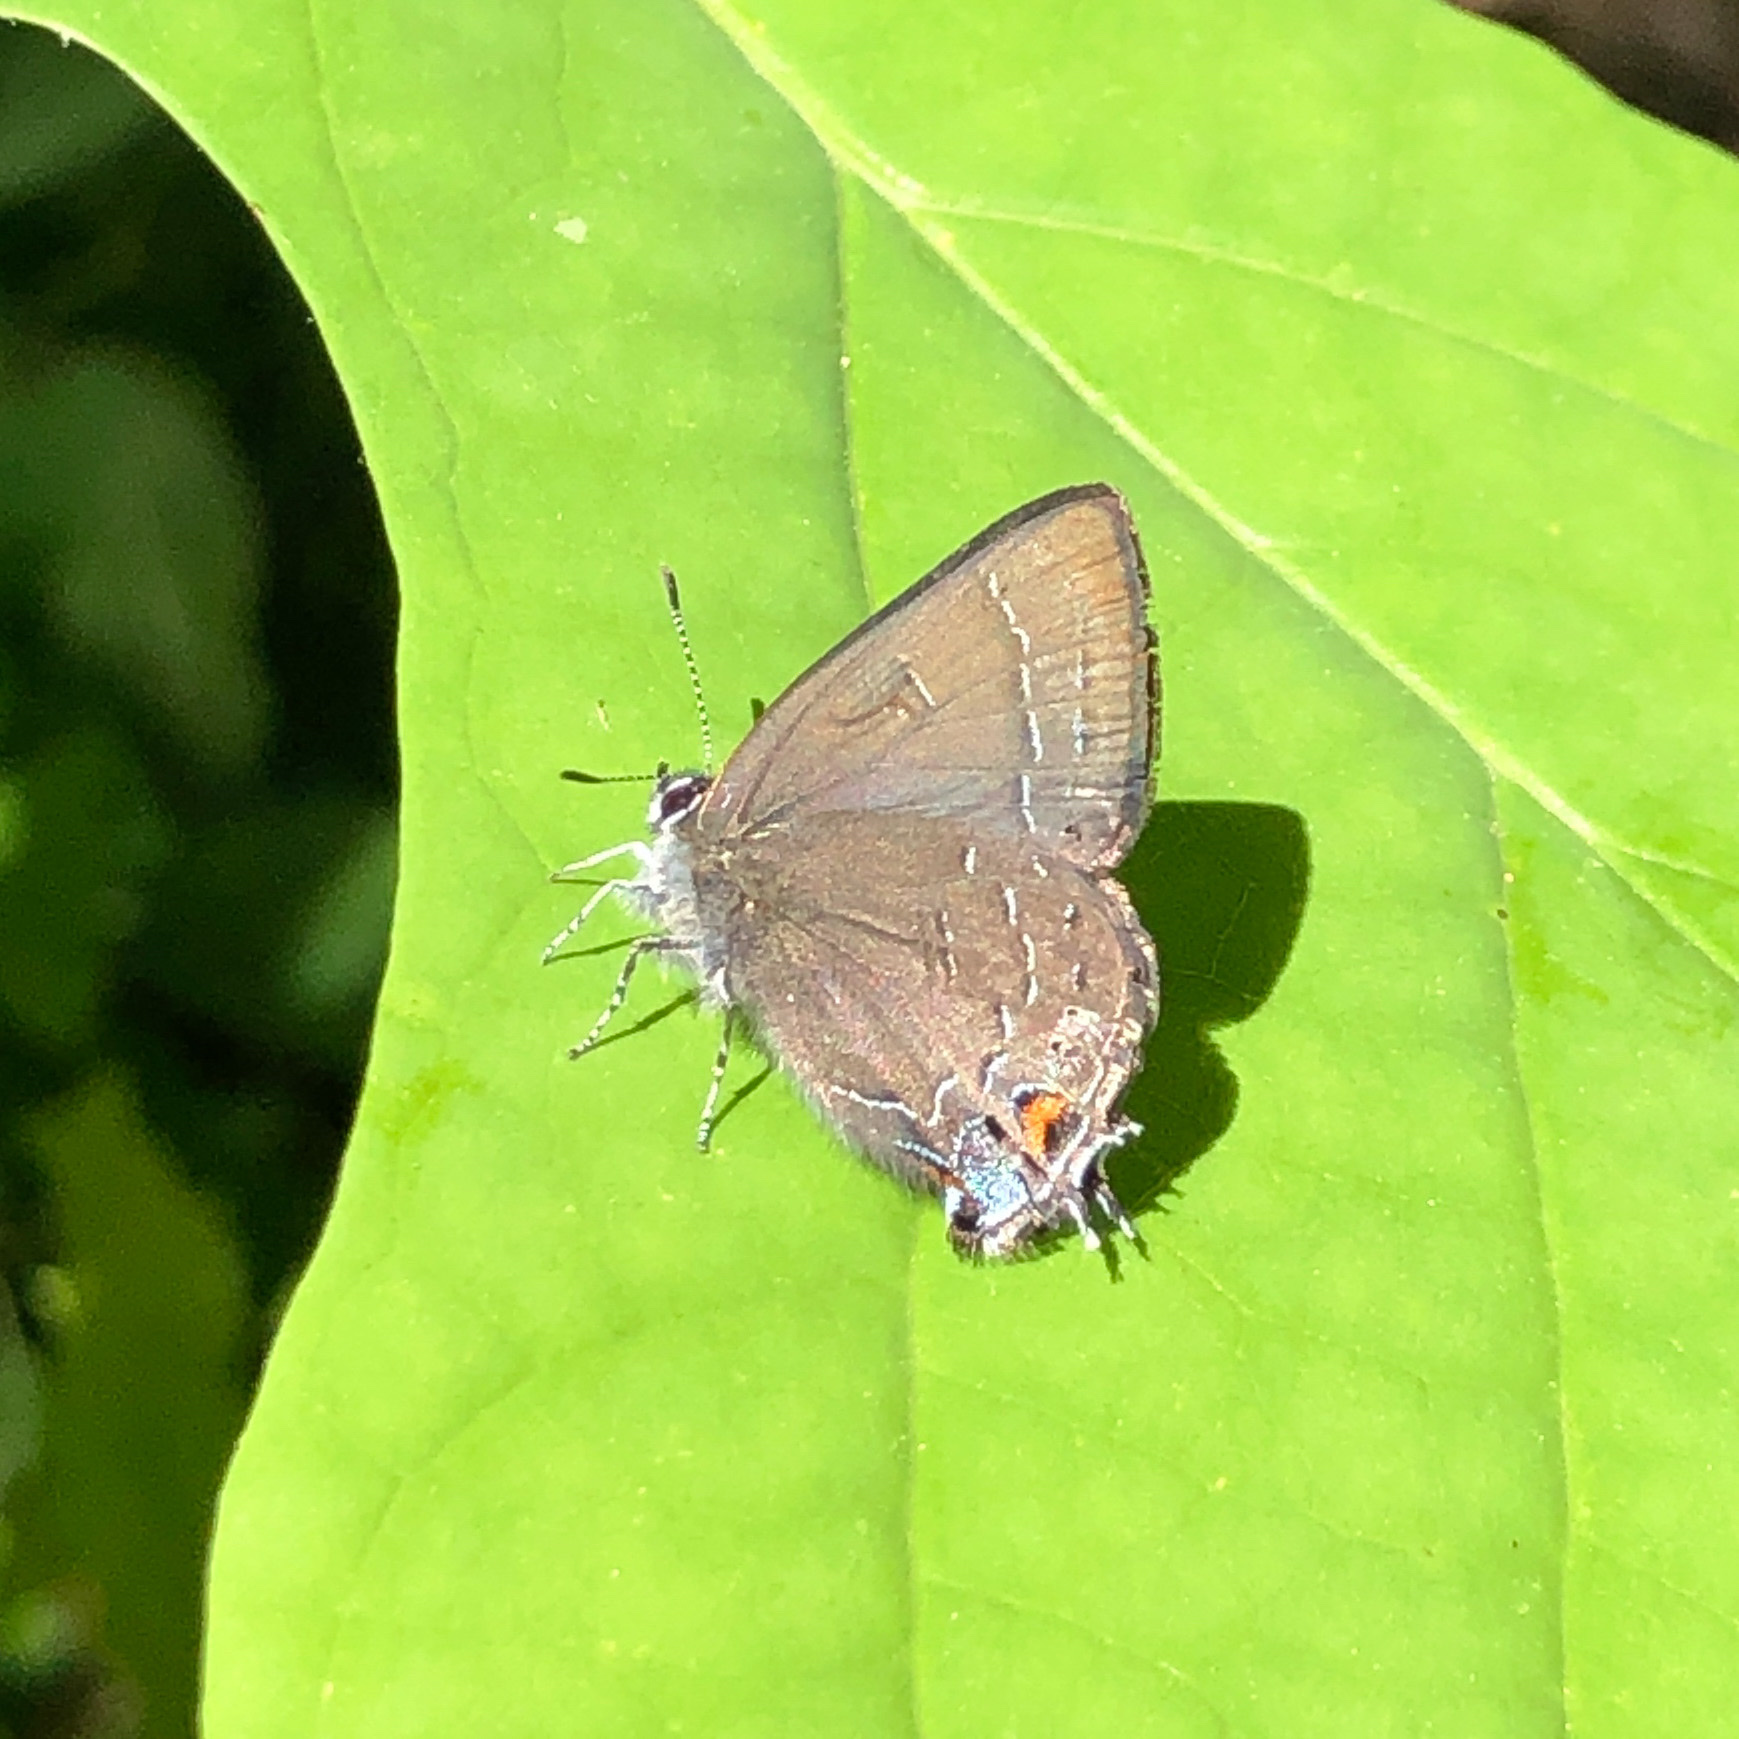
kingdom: Animalia
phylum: Arthropoda
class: Insecta
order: Lepidoptera
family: Lycaenidae
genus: Satyrium
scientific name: Satyrium calanus
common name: Banded hairstreak
